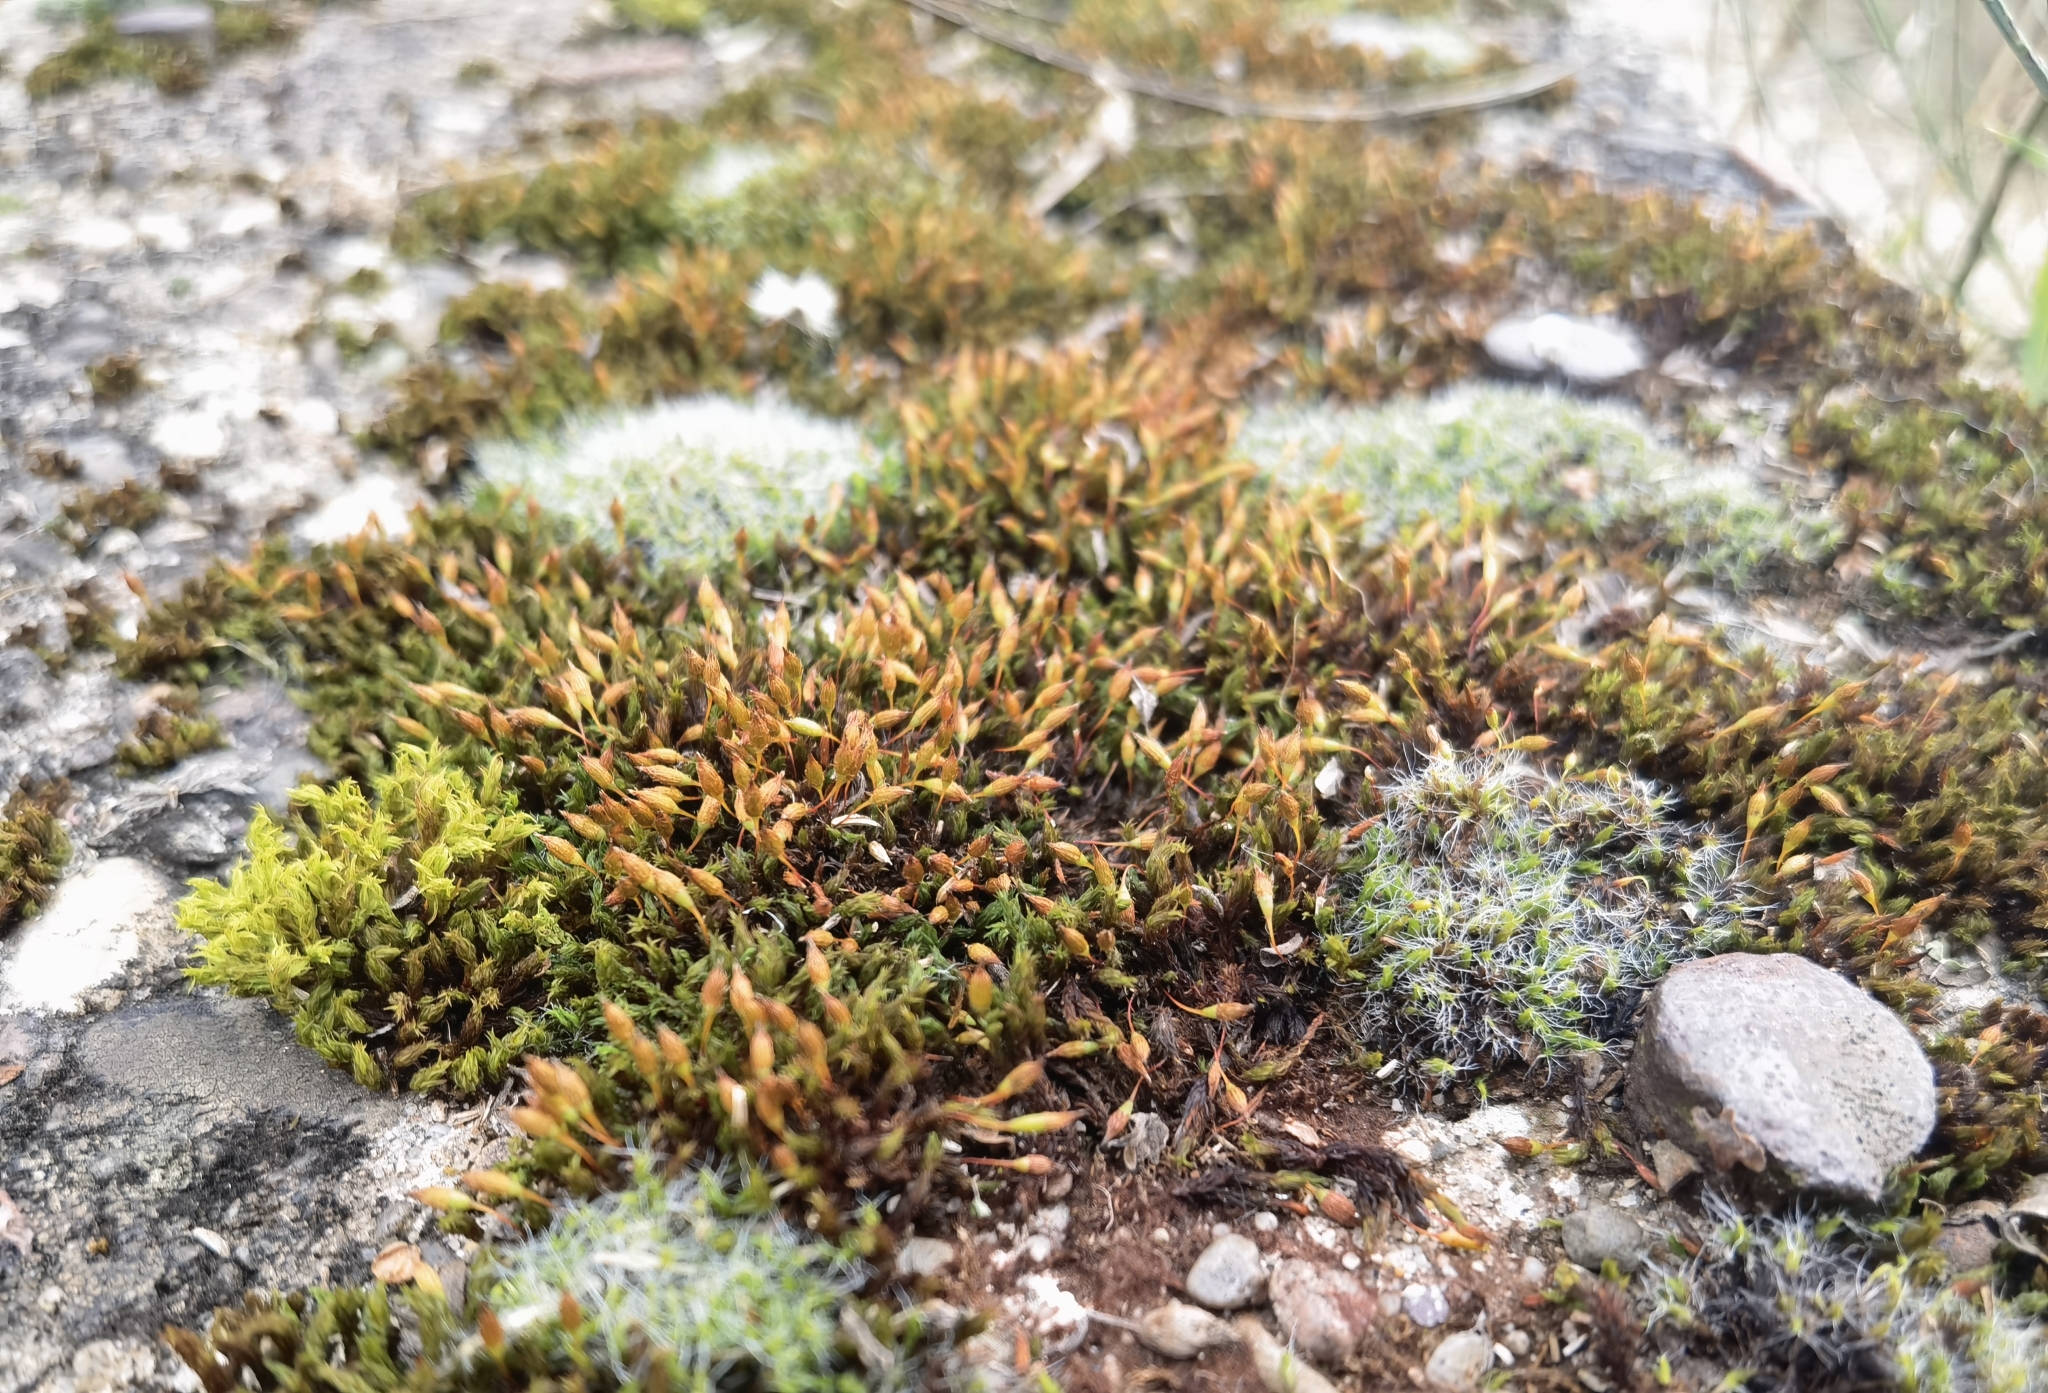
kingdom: Plantae
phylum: Bryophyta
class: Bryopsida
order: Orthotrichales
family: Orthotrichaceae
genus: Orthotrichum
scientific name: Orthotrichum anomalum
